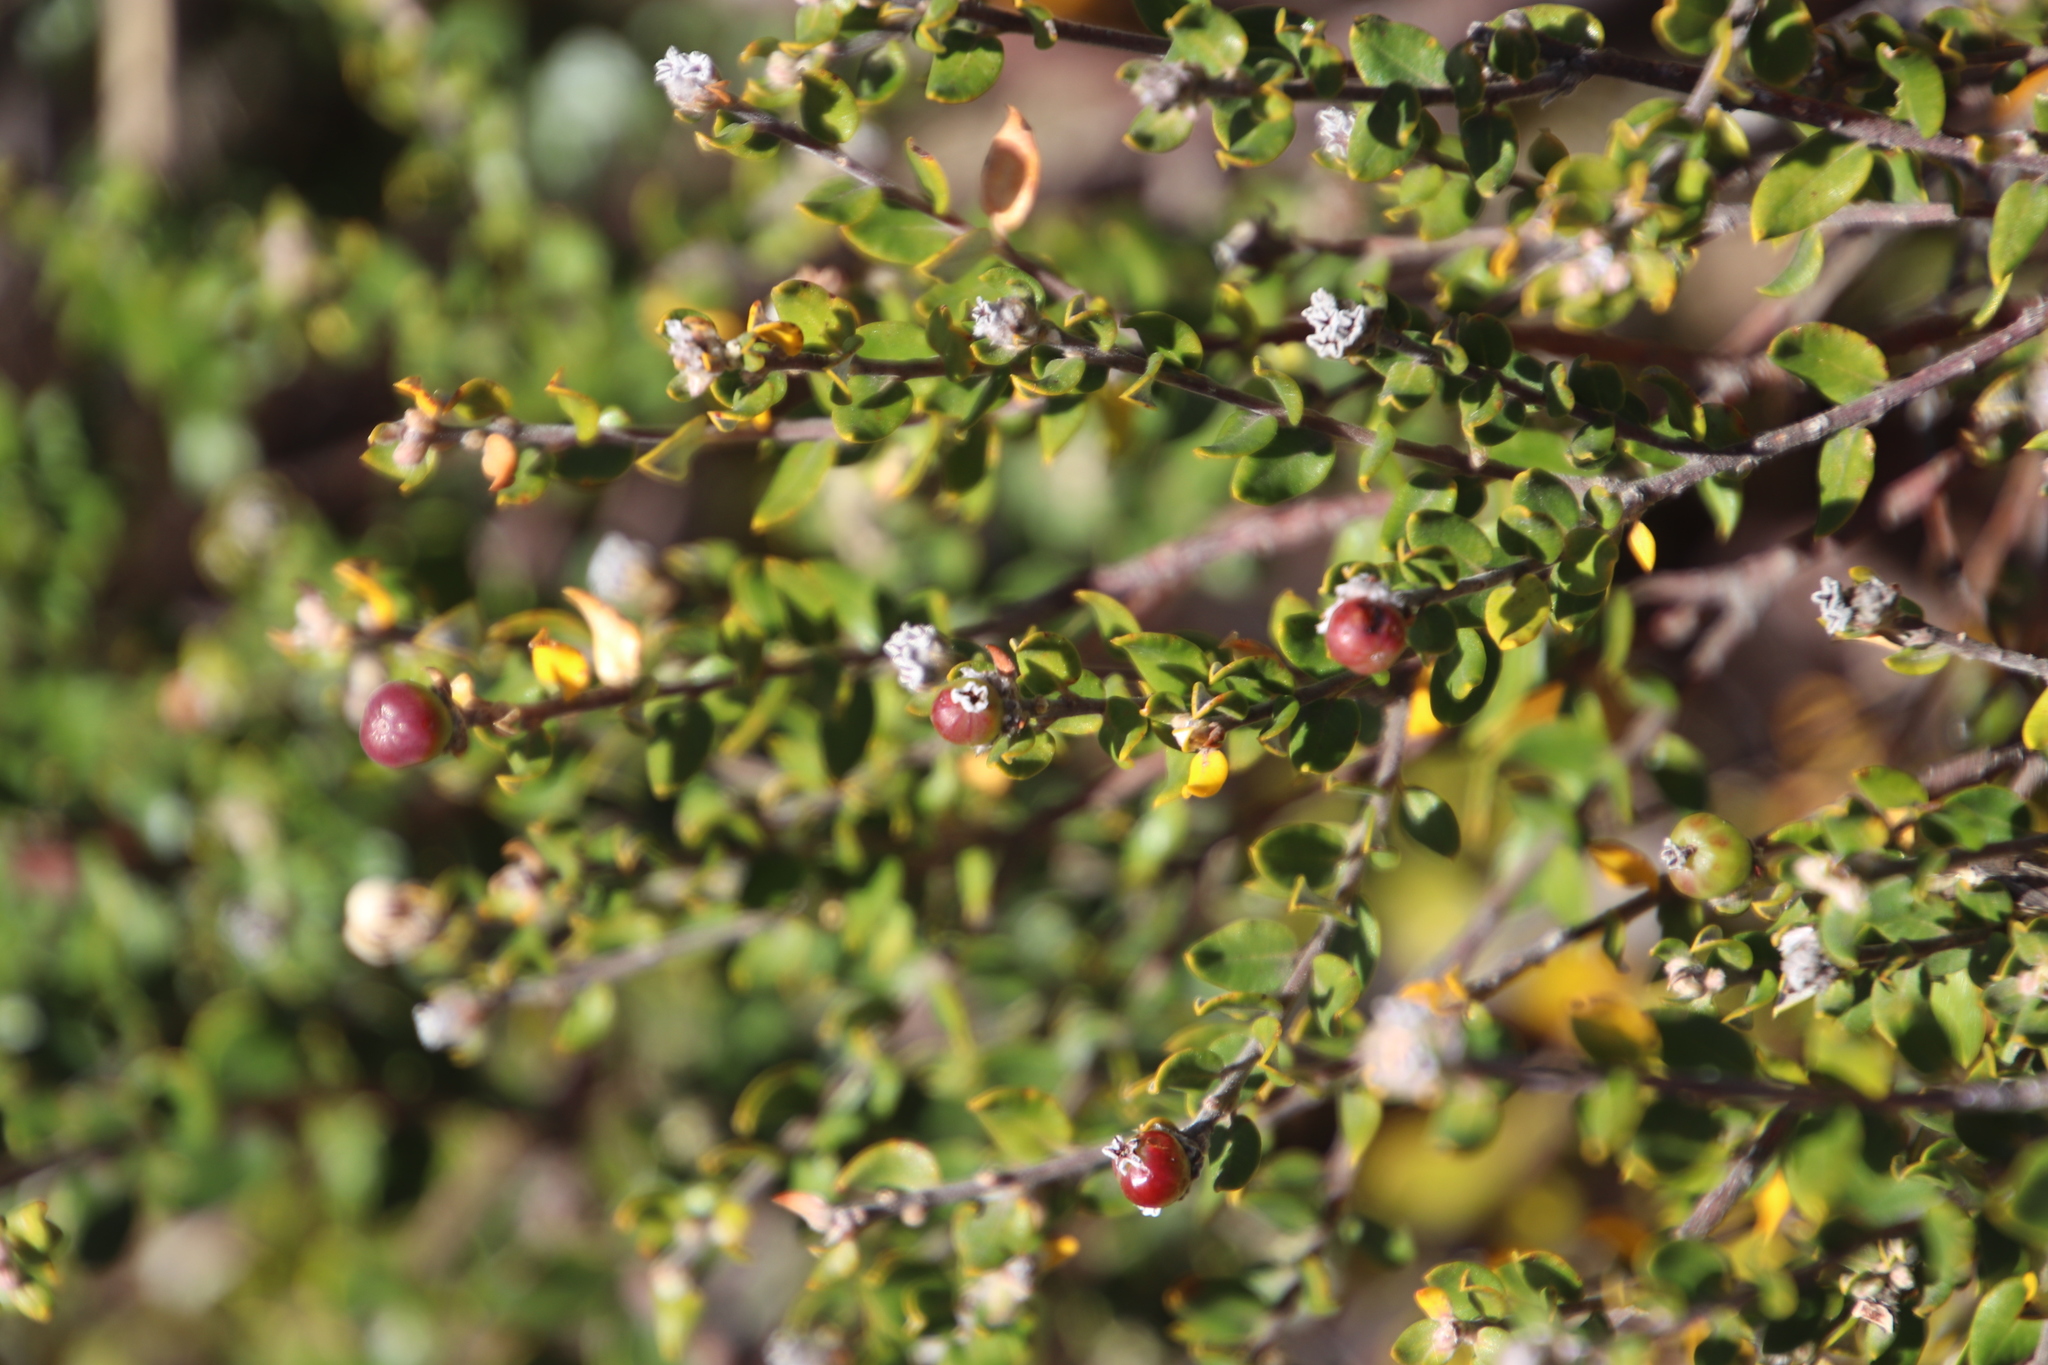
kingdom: Plantae
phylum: Tracheophyta
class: Magnoliopsida
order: Rosales
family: Rhamnaceae
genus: Phylica
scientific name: Phylica nervosa
